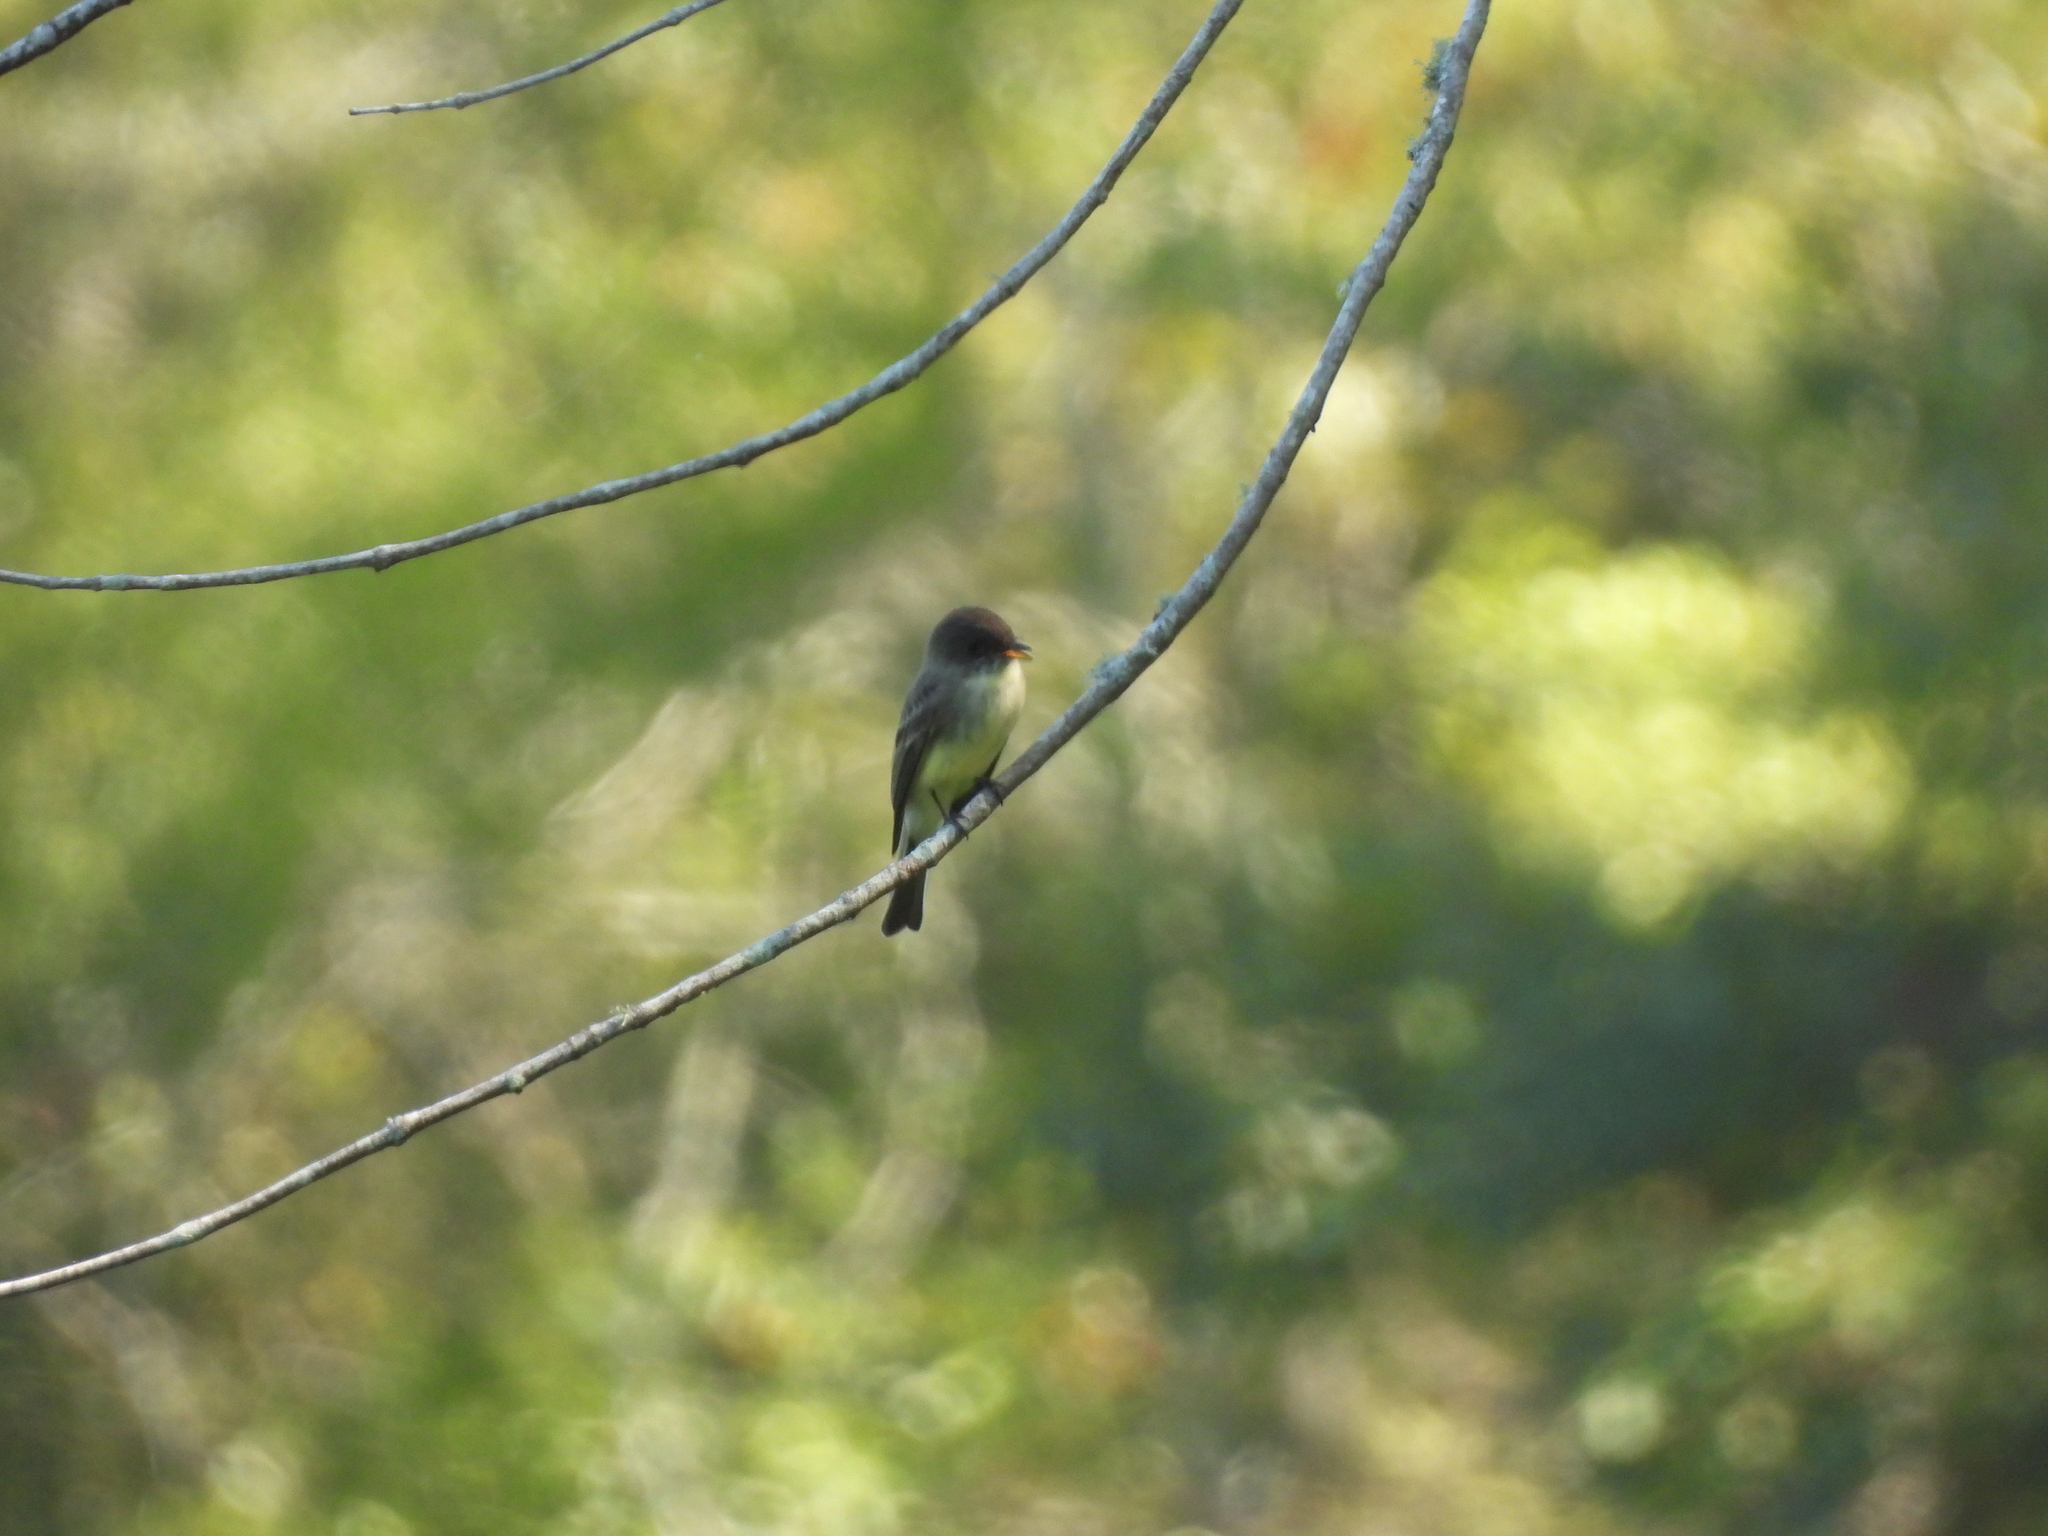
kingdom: Animalia
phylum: Chordata
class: Aves
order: Passeriformes
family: Tyrannidae
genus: Sayornis
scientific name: Sayornis phoebe
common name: Eastern phoebe
